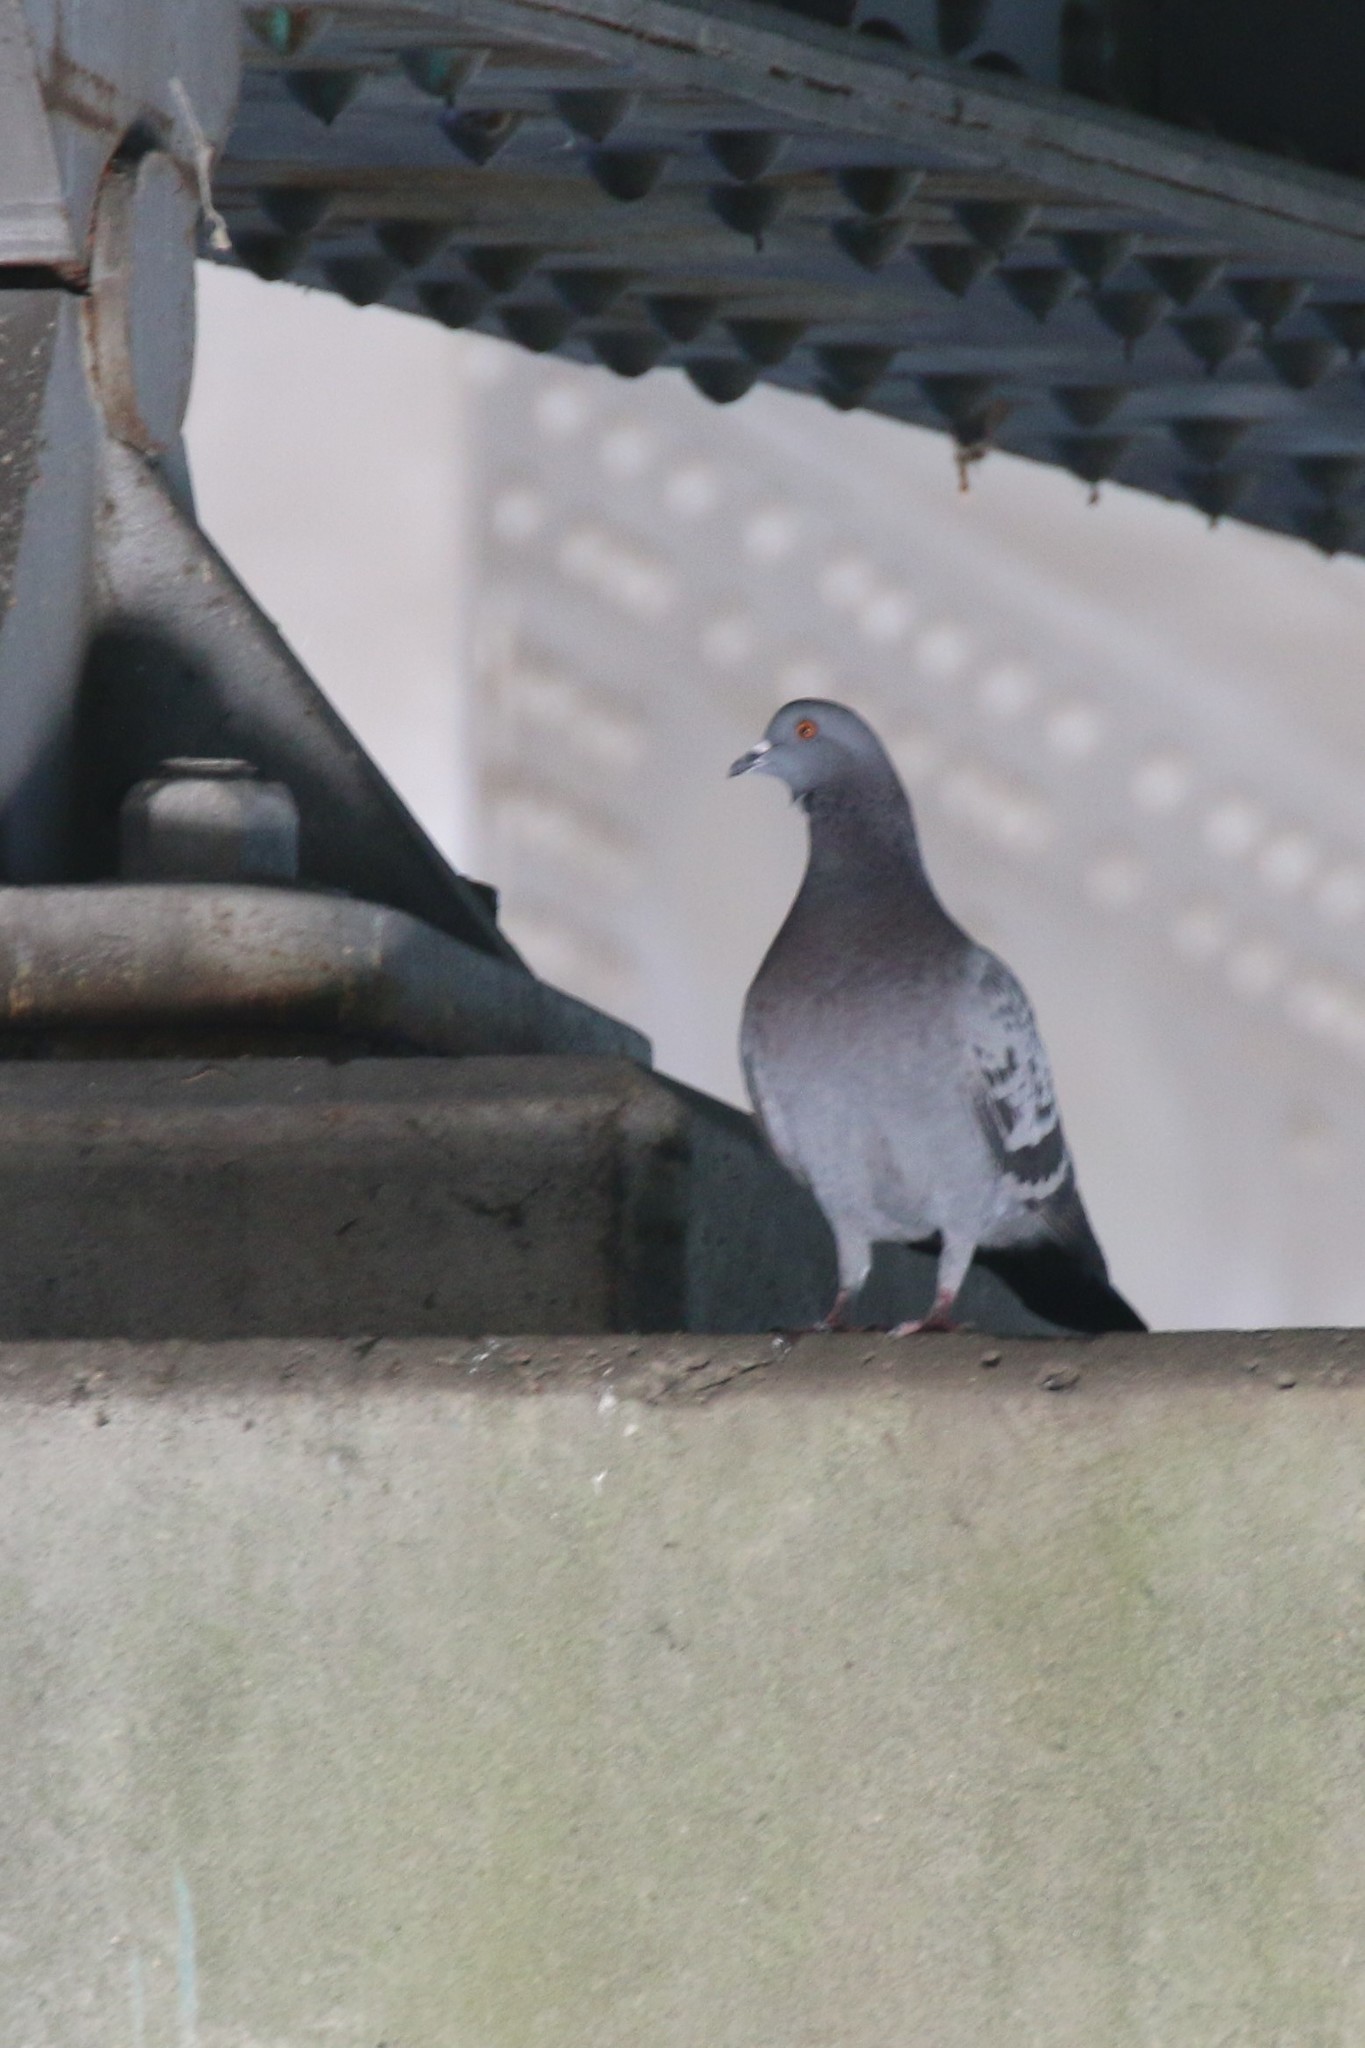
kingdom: Animalia
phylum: Chordata
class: Aves
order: Columbiformes
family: Columbidae
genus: Columba
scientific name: Columba livia
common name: Rock pigeon
